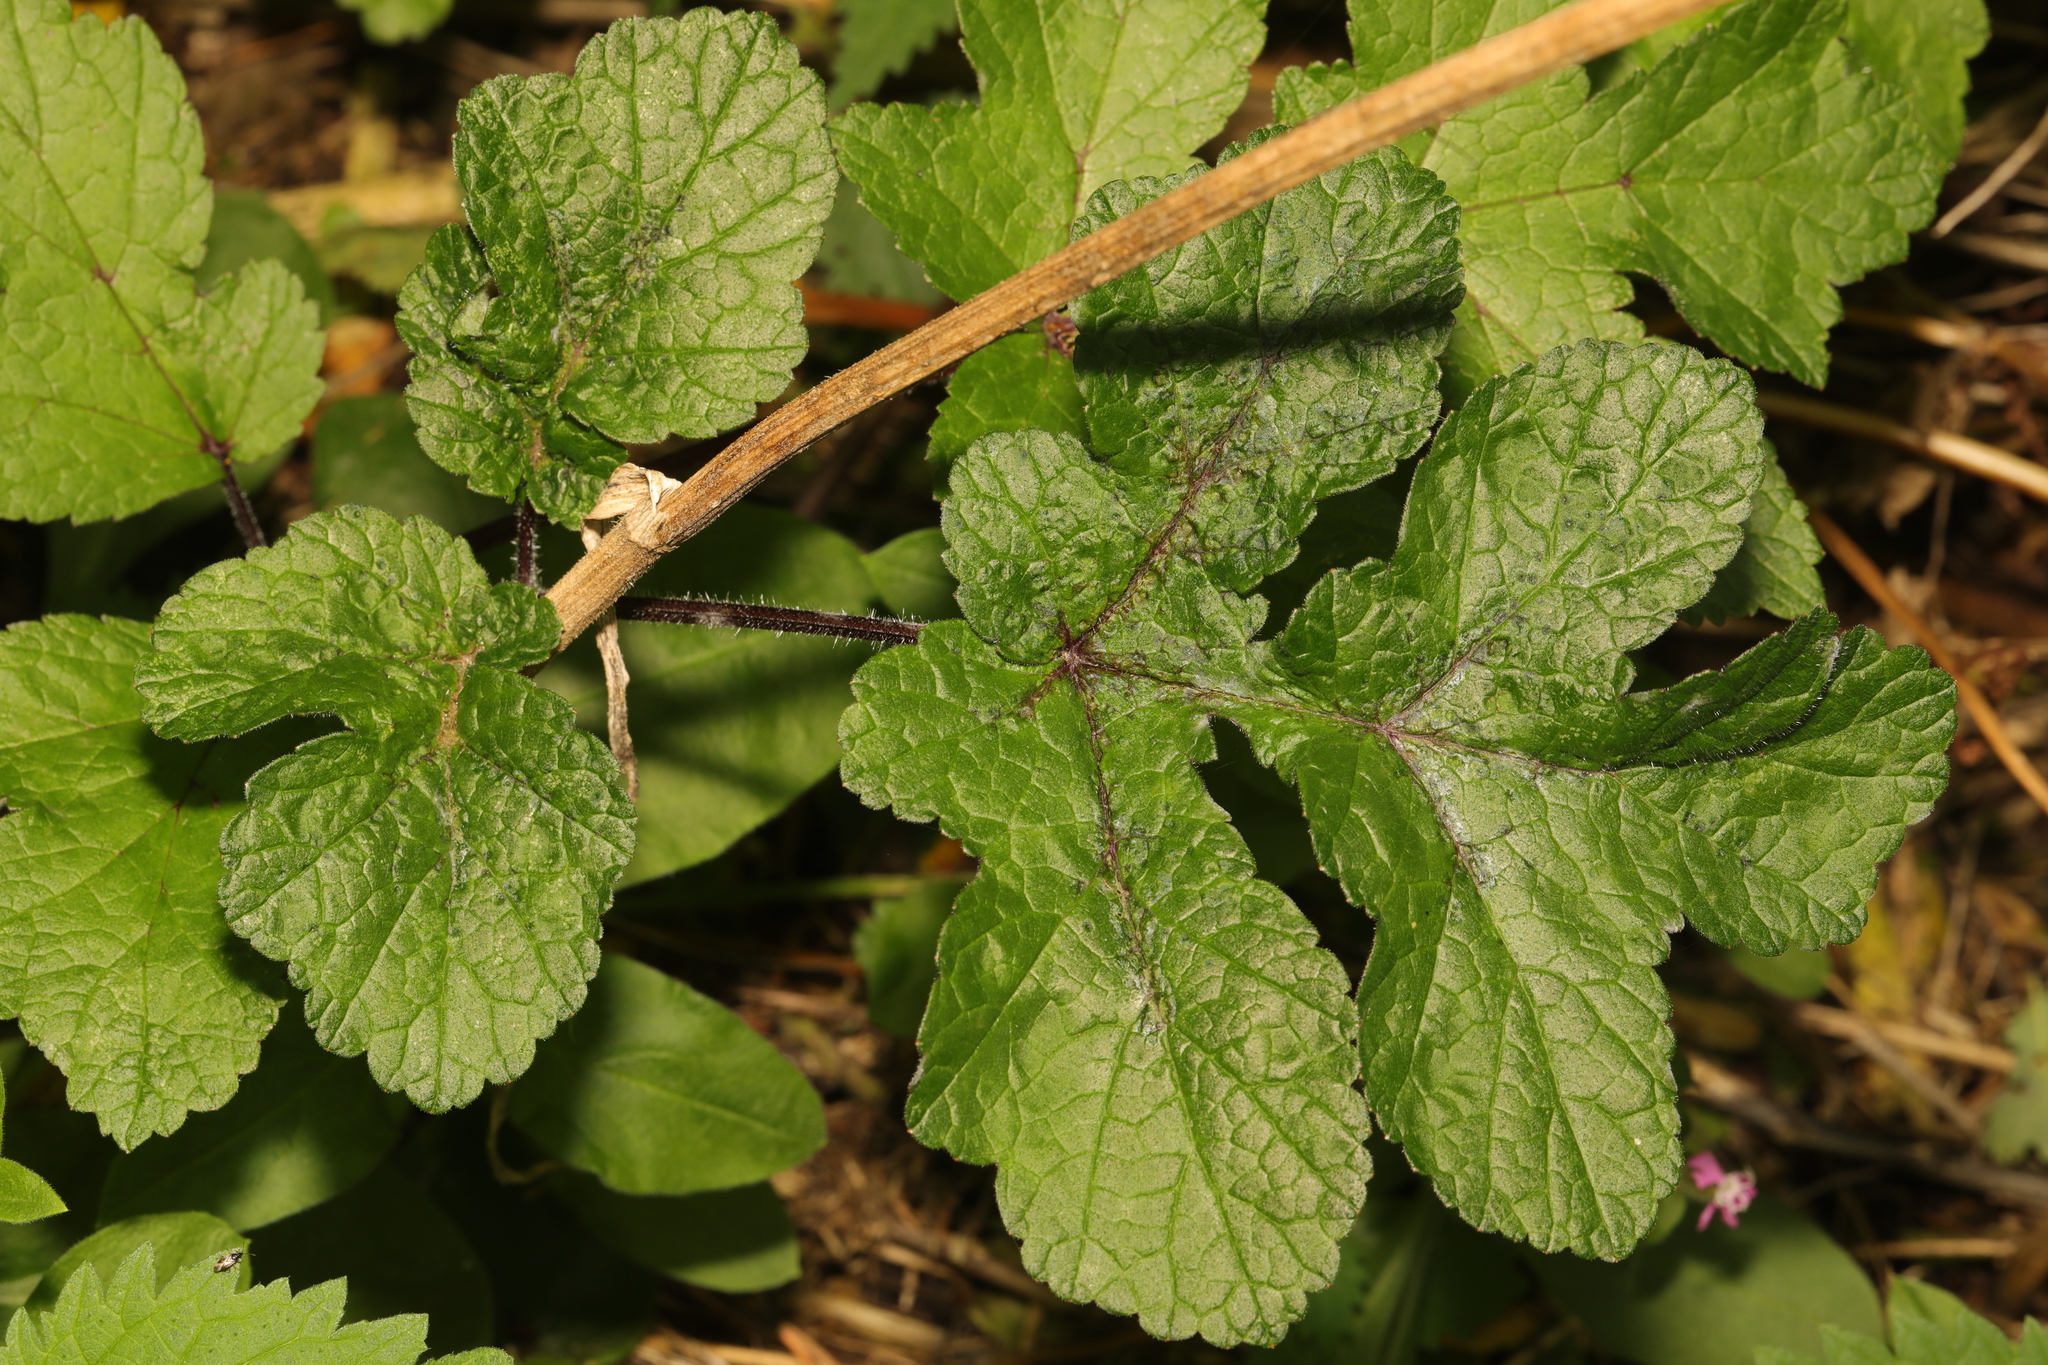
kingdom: Plantae
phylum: Tracheophyta
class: Magnoliopsida
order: Apiales
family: Apiaceae
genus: Heracleum
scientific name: Heracleum sphondylium
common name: Hogweed
